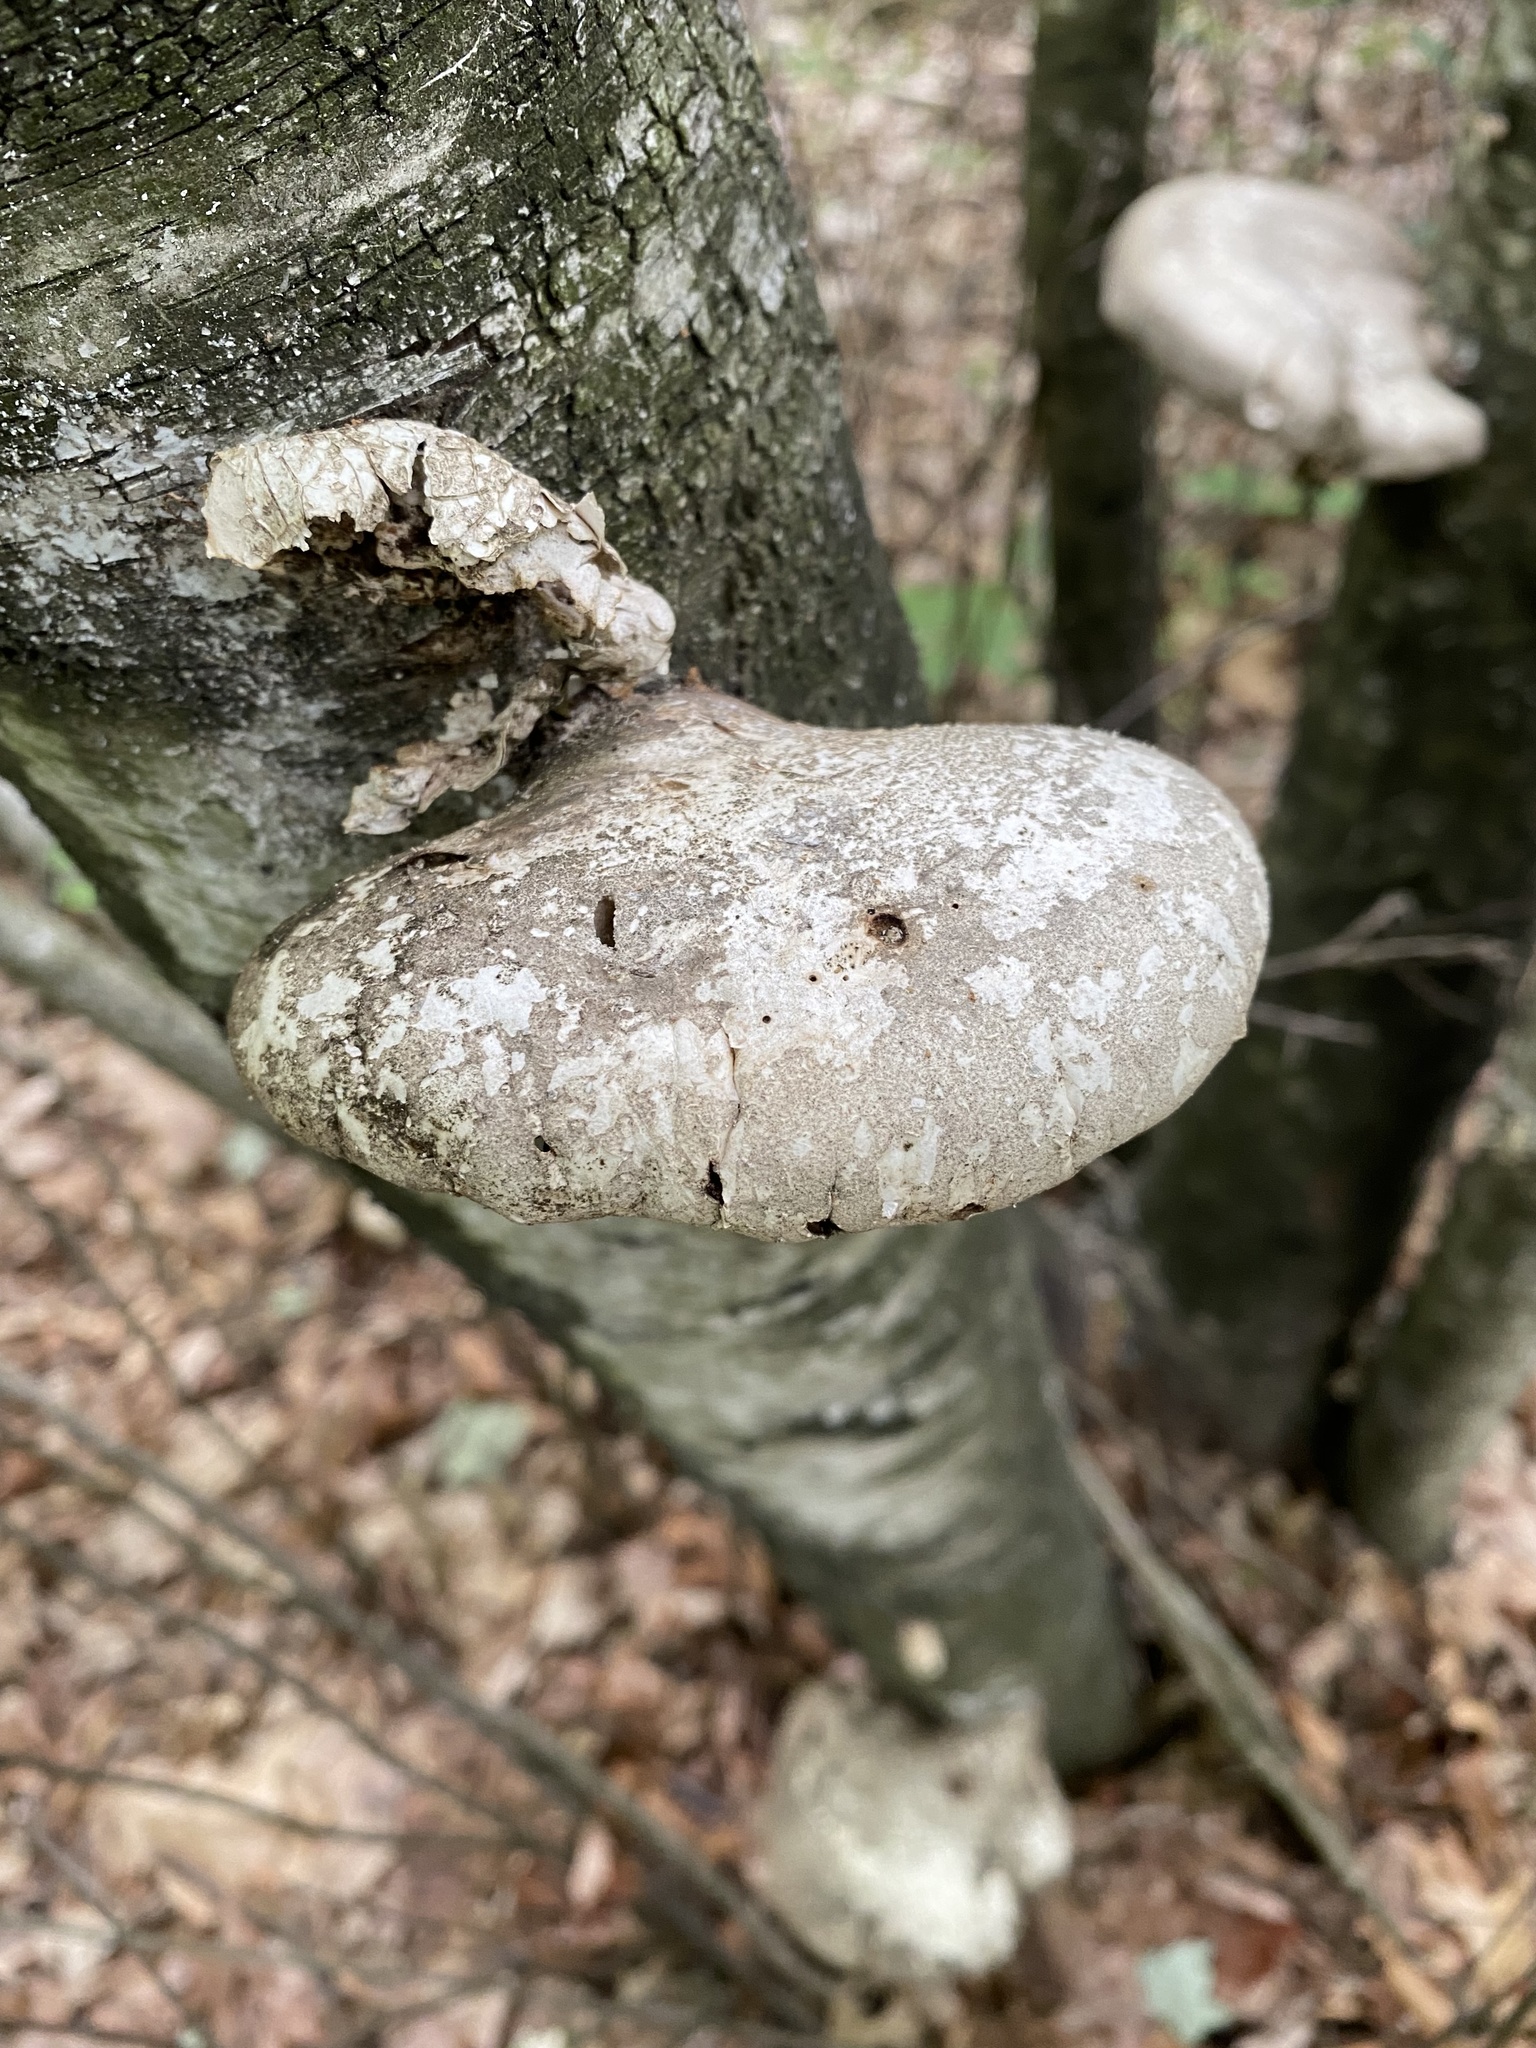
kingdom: Fungi
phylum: Basidiomycota
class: Agaricomycetes
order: Polyporales
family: Fomitopsidaceae
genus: Fomitopsis
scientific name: Fomitopsis betulina
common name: Birch polypore
